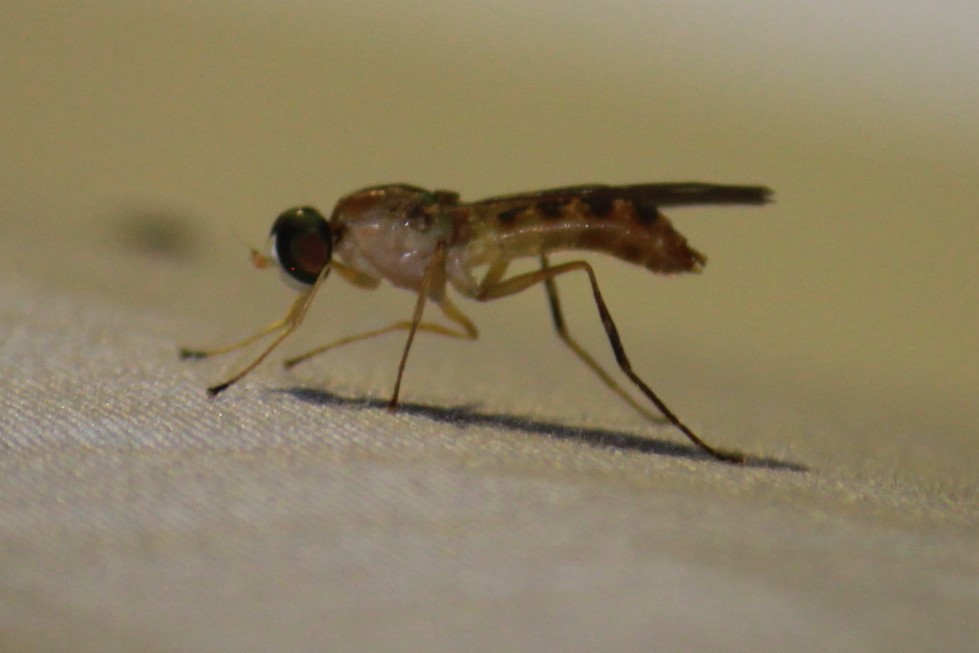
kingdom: Animalia
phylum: Arthropoda
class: Insecta
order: Diptera
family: Stratiomyidae
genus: Ptecticus
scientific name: Ptecticus trivittatus
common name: Compost fly
